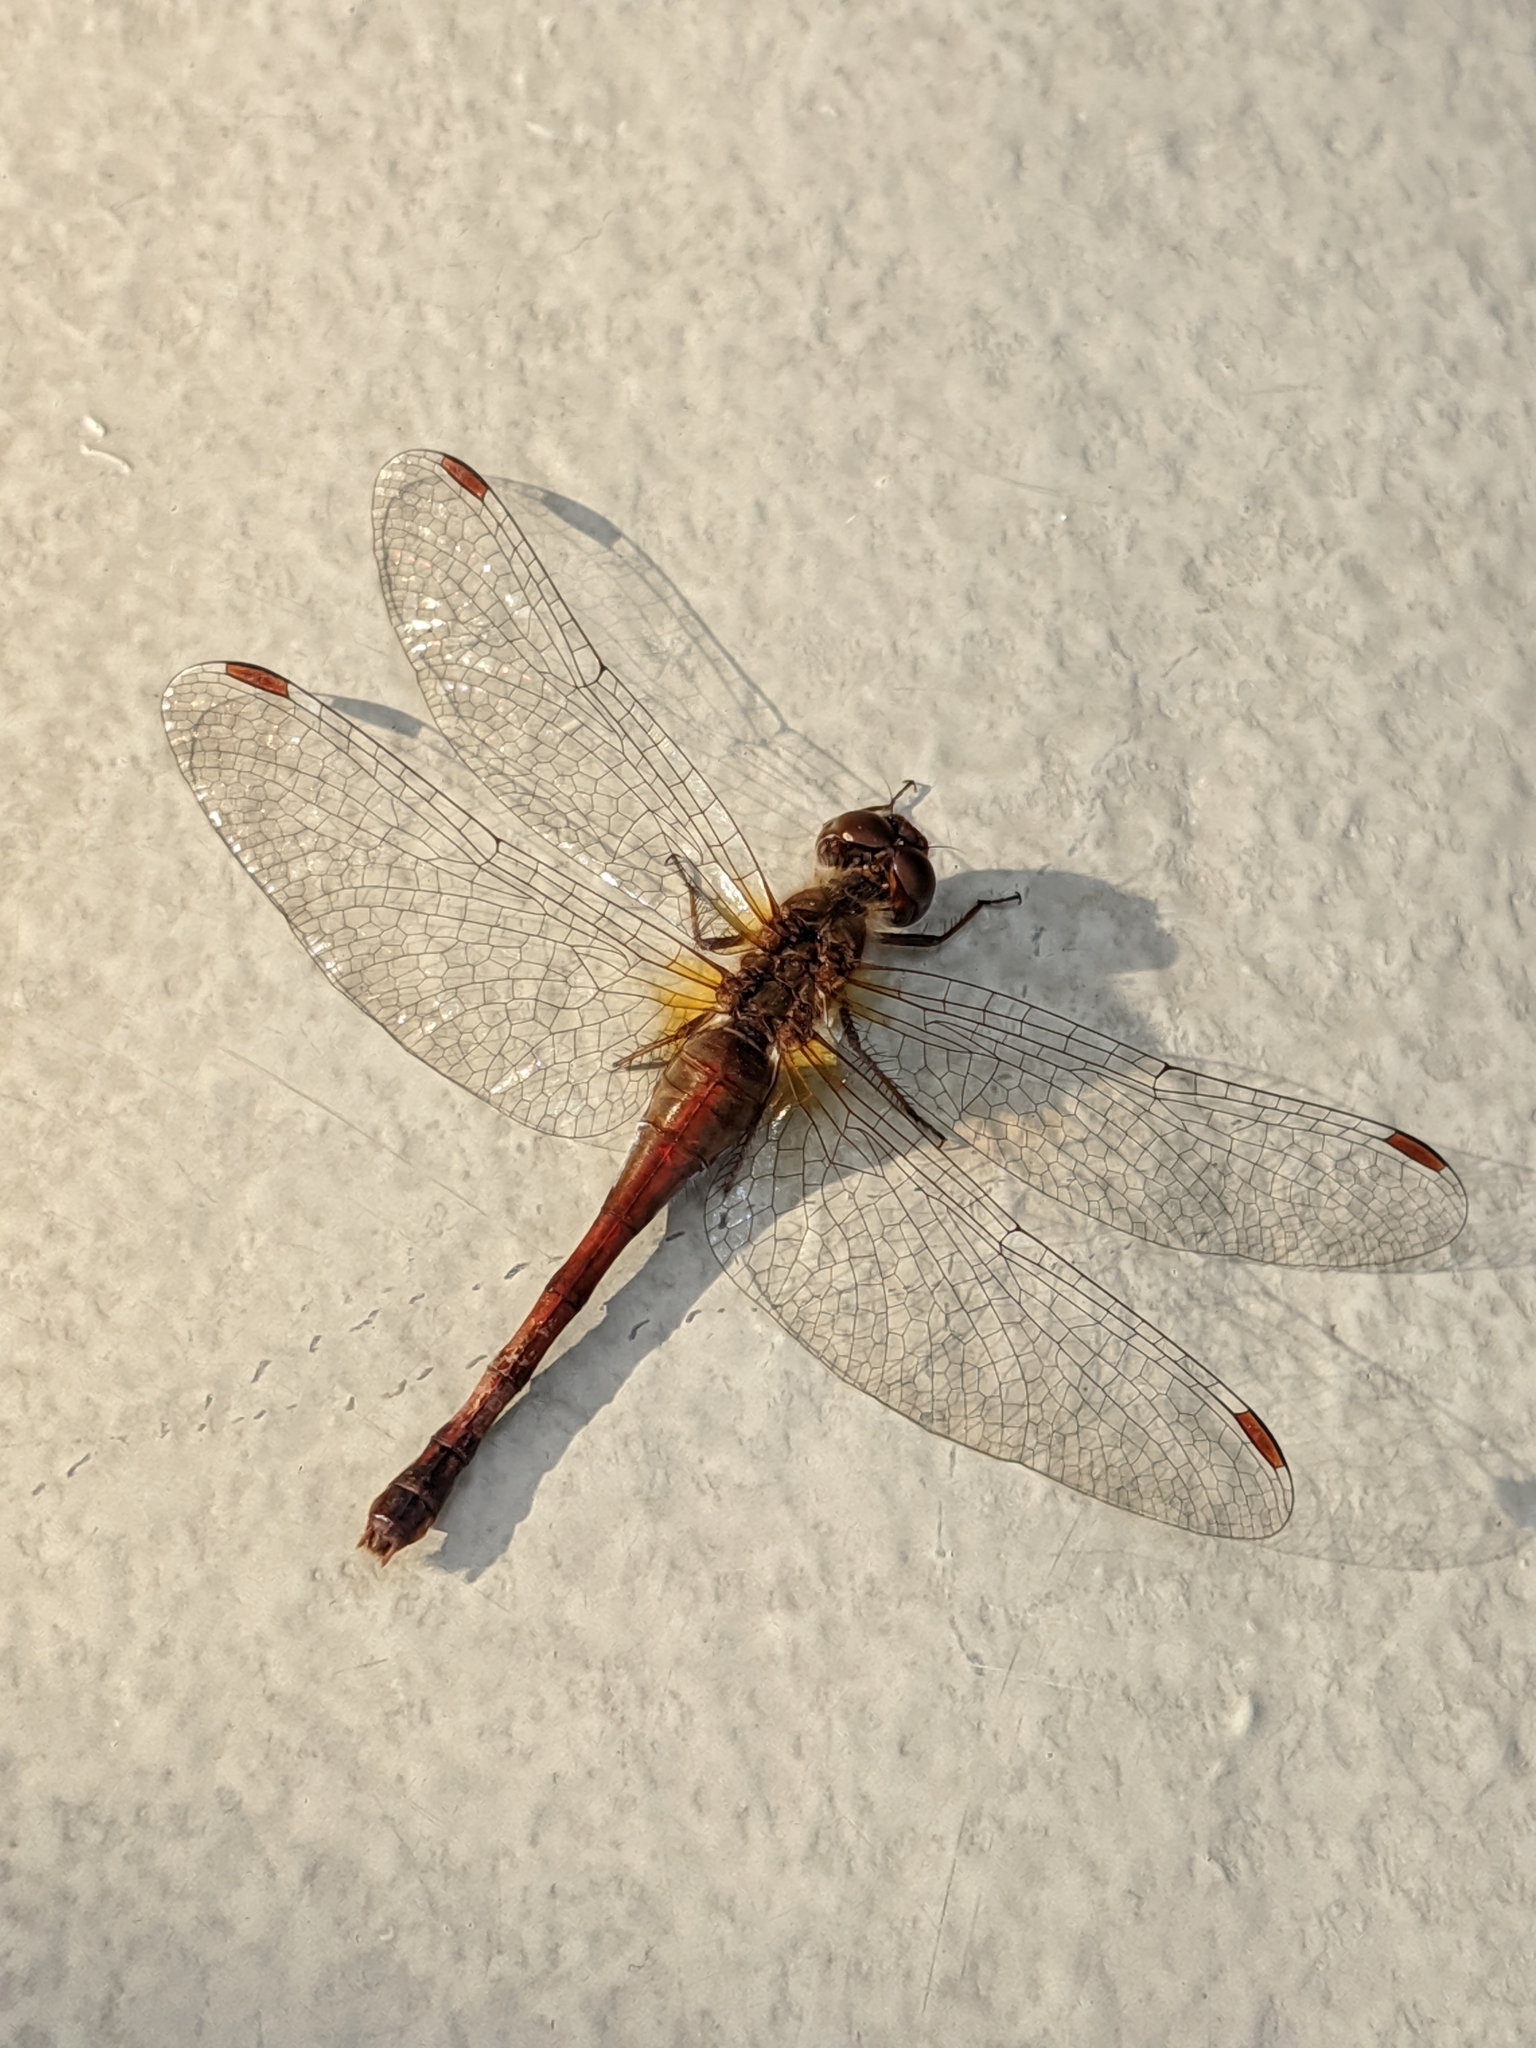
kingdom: Animalia
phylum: Arthropoda
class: Insecta
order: Odonata
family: Libellulidae
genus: Sympetrum
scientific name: Sympetrum vicinum
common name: Autumn meadowhawk
